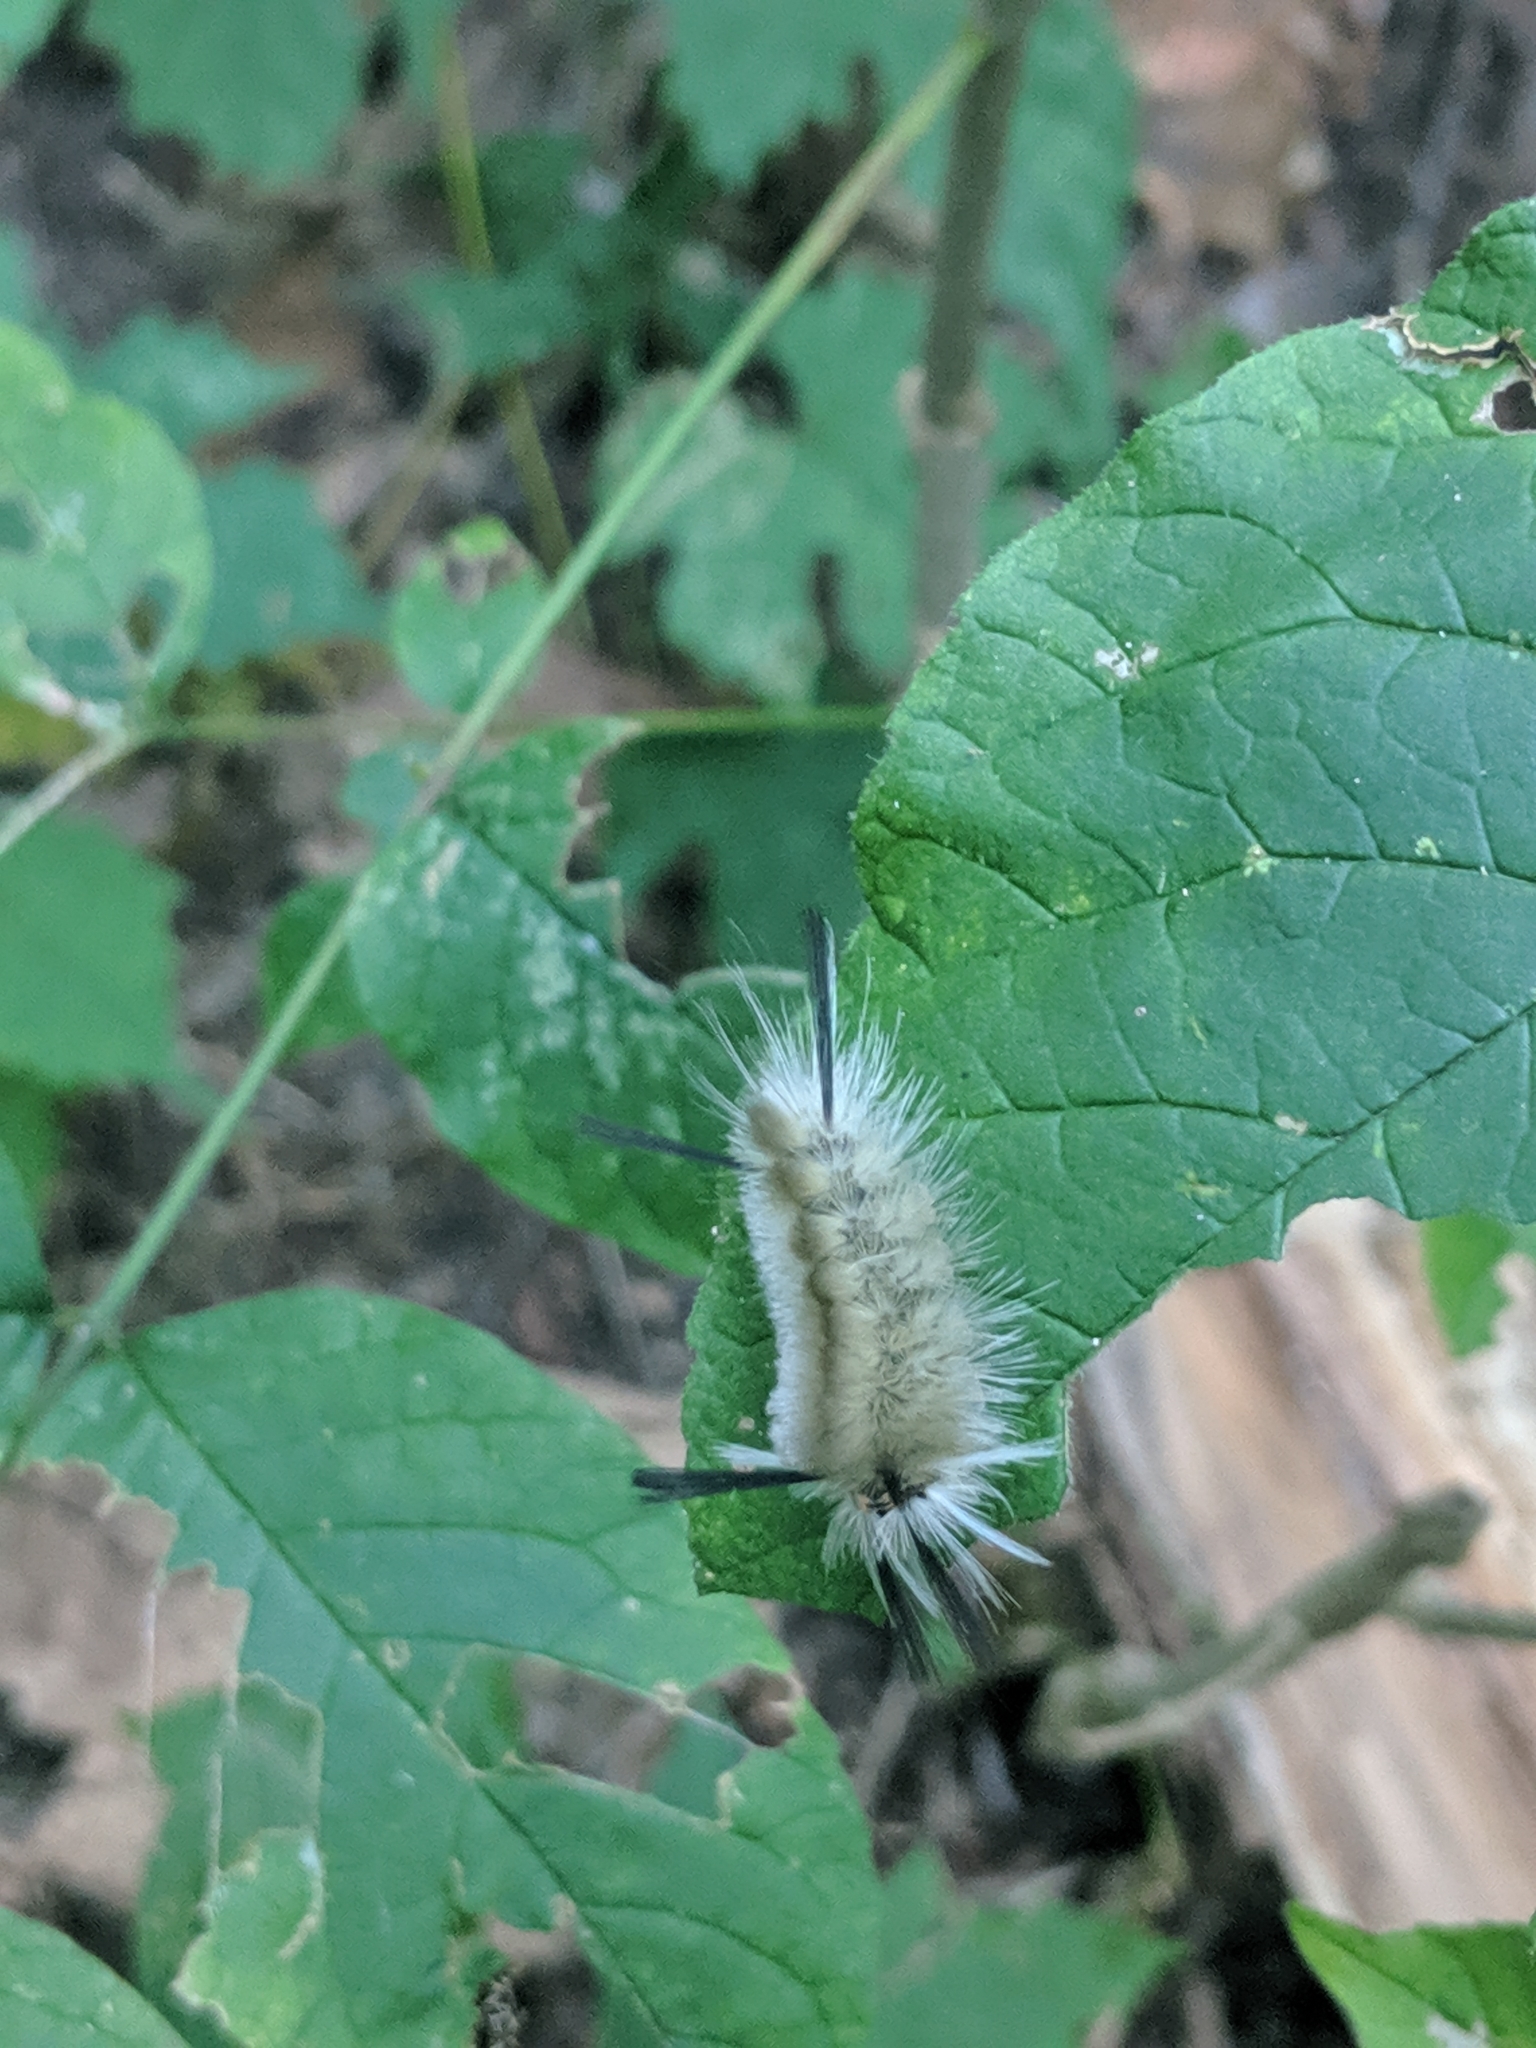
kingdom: Animalia
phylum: Arthropoda
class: Insecta
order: Lepidoptera
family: Erebidae
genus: Halysidota
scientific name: Halysidota tessellaris
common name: Banded tussock moth
